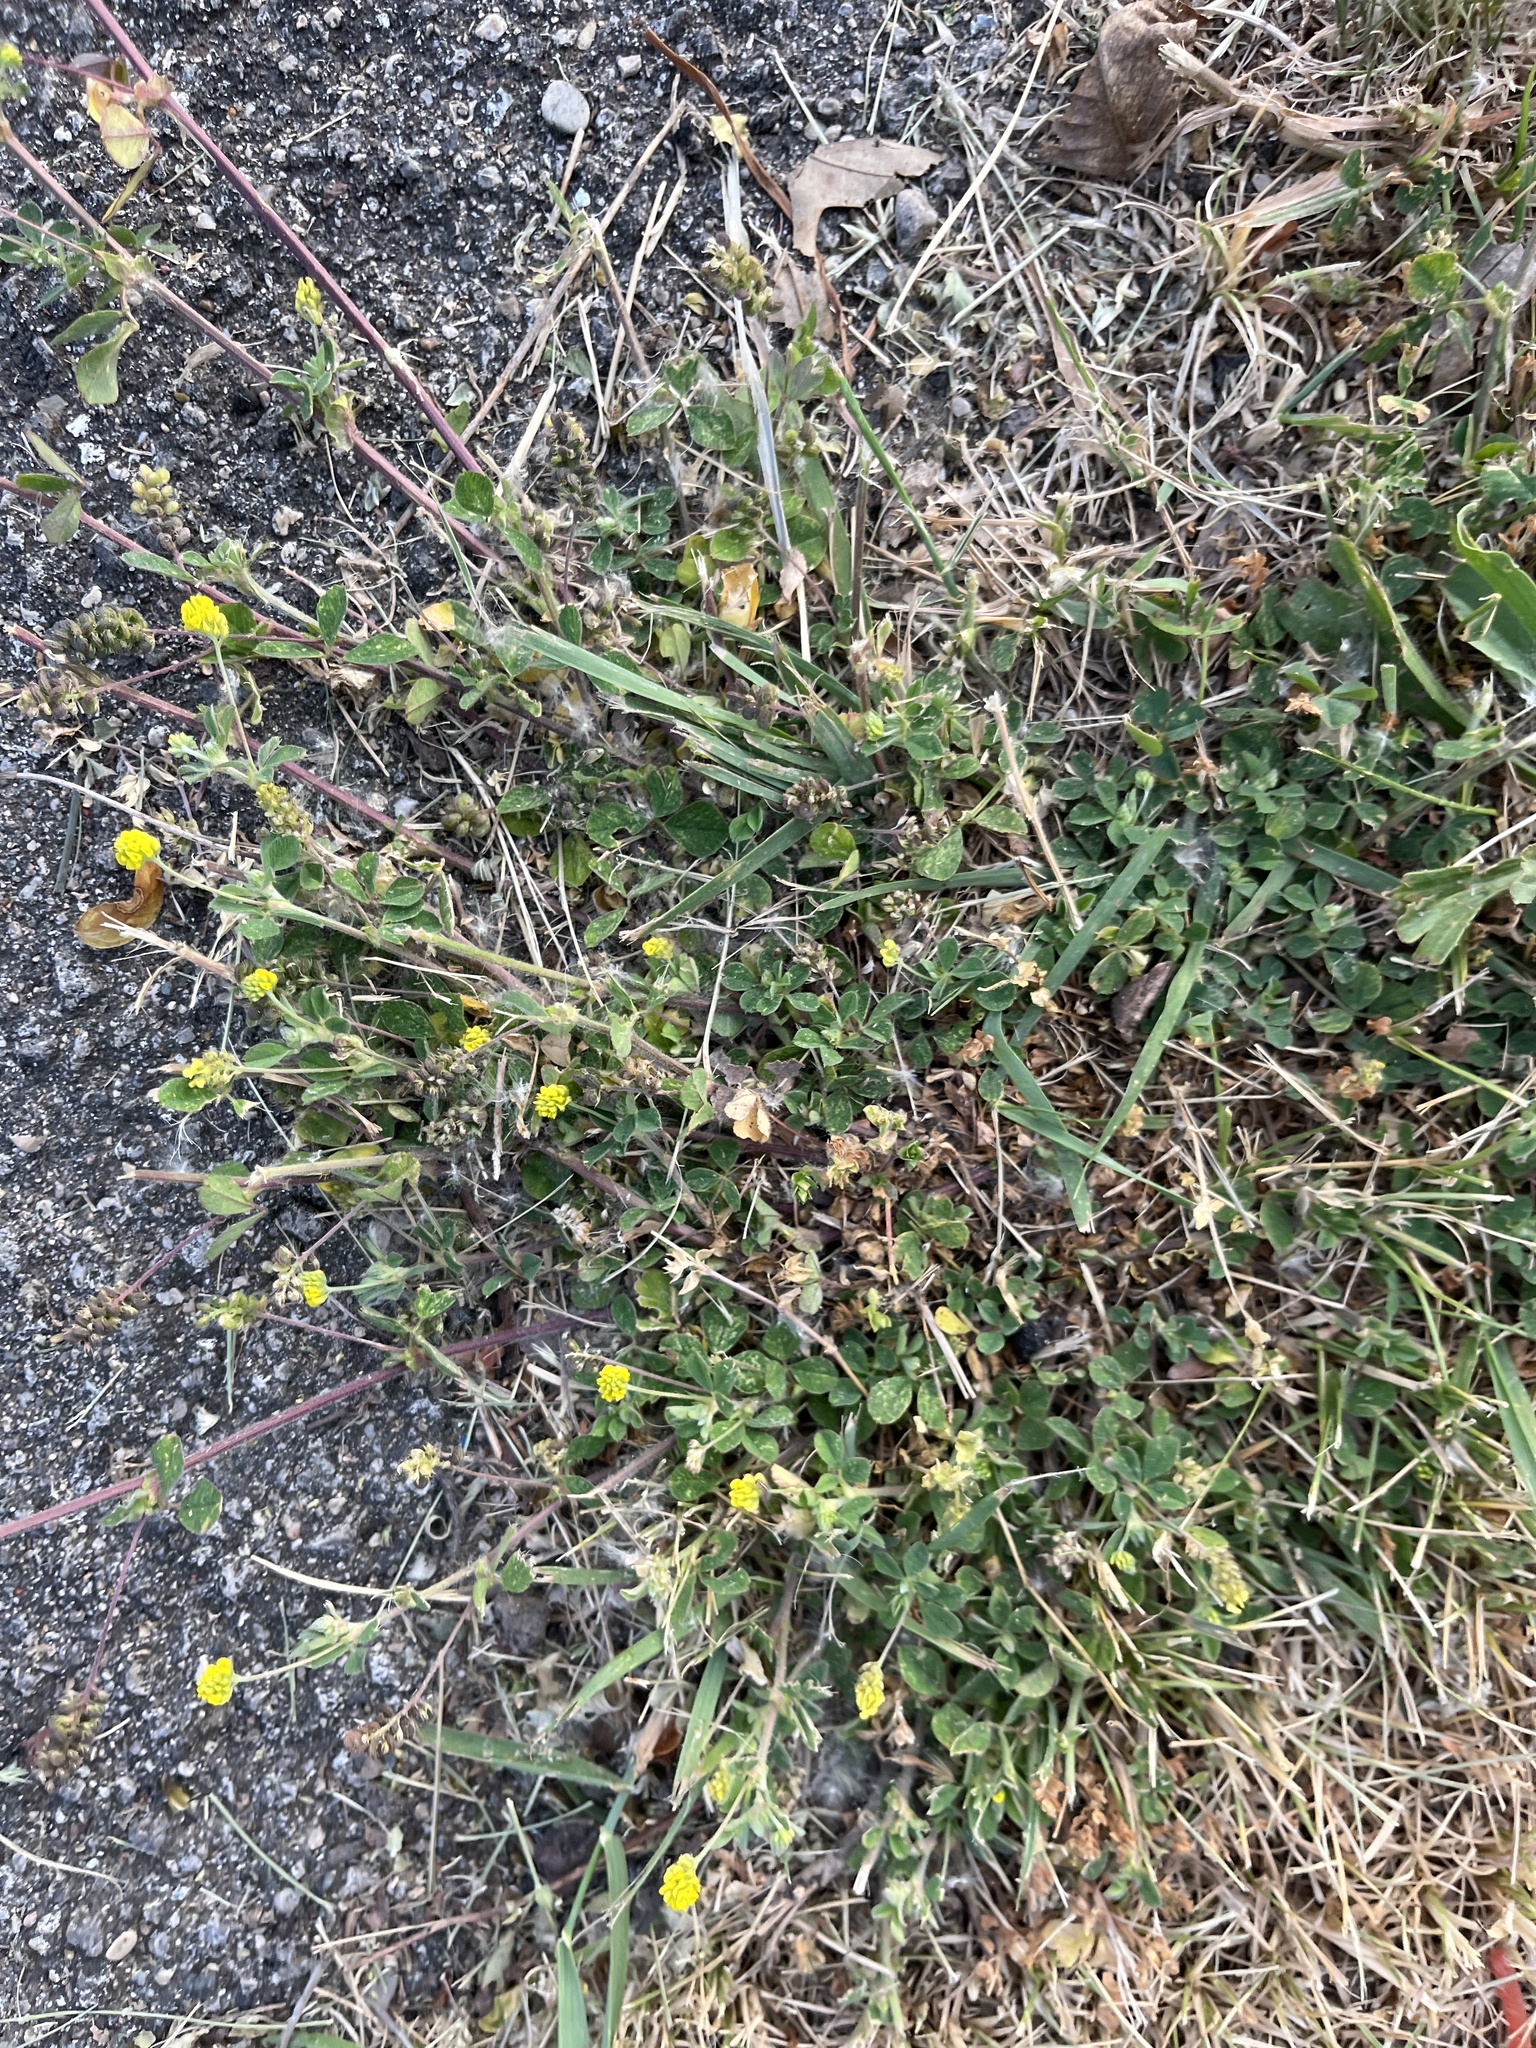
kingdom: Plantae
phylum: Tracheophyta
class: Magnoliopsida
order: Fabales
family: Fabaceae
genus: Medicago
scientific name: Medicago lupulina
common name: Black medick
